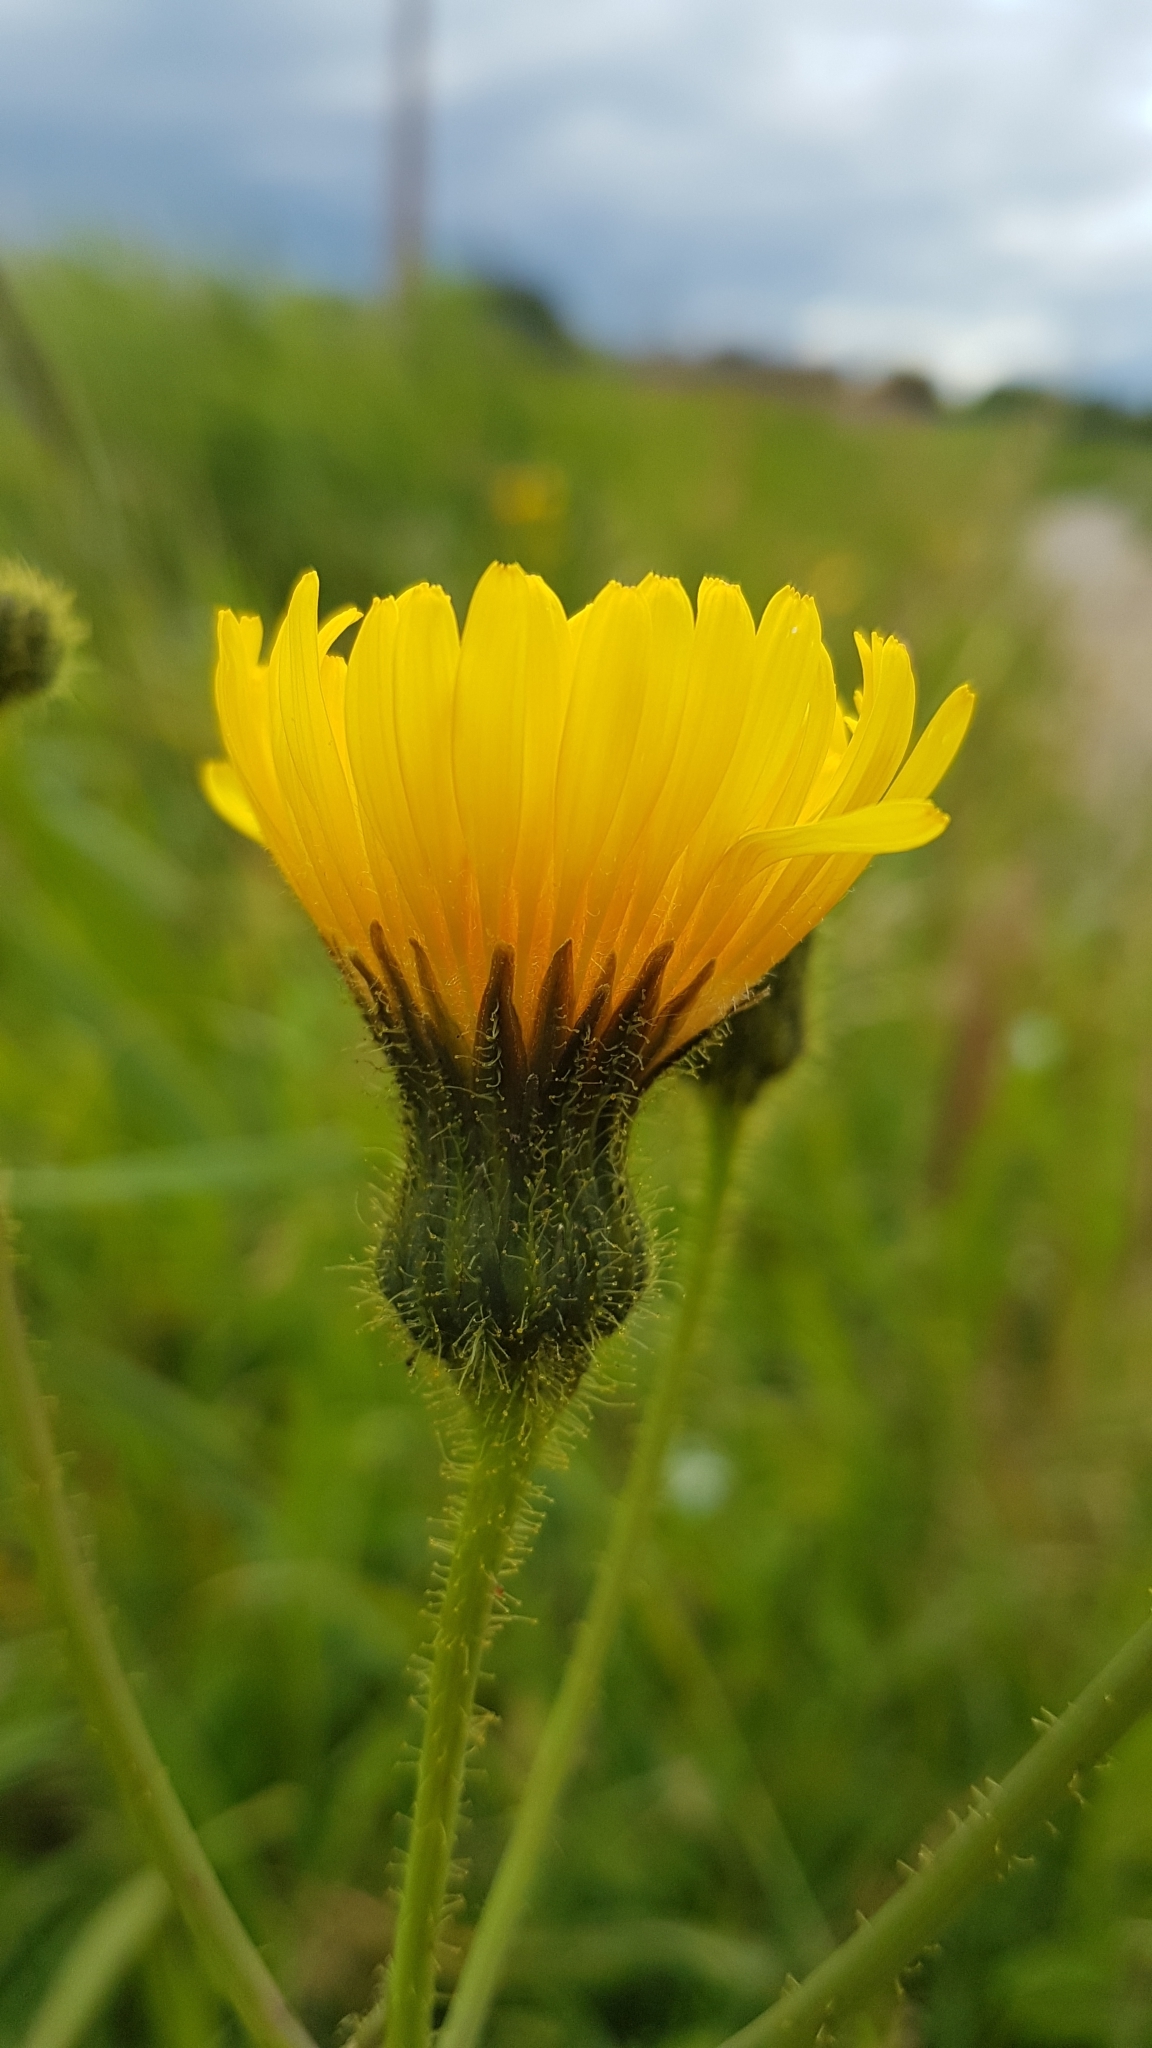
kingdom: Plantae
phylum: Tracheophyta
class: Magnoliopsida
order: Asterales
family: Asteraceae
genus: Sonchus
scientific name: Sonchus arvensis
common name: Perennial sow-thistle
